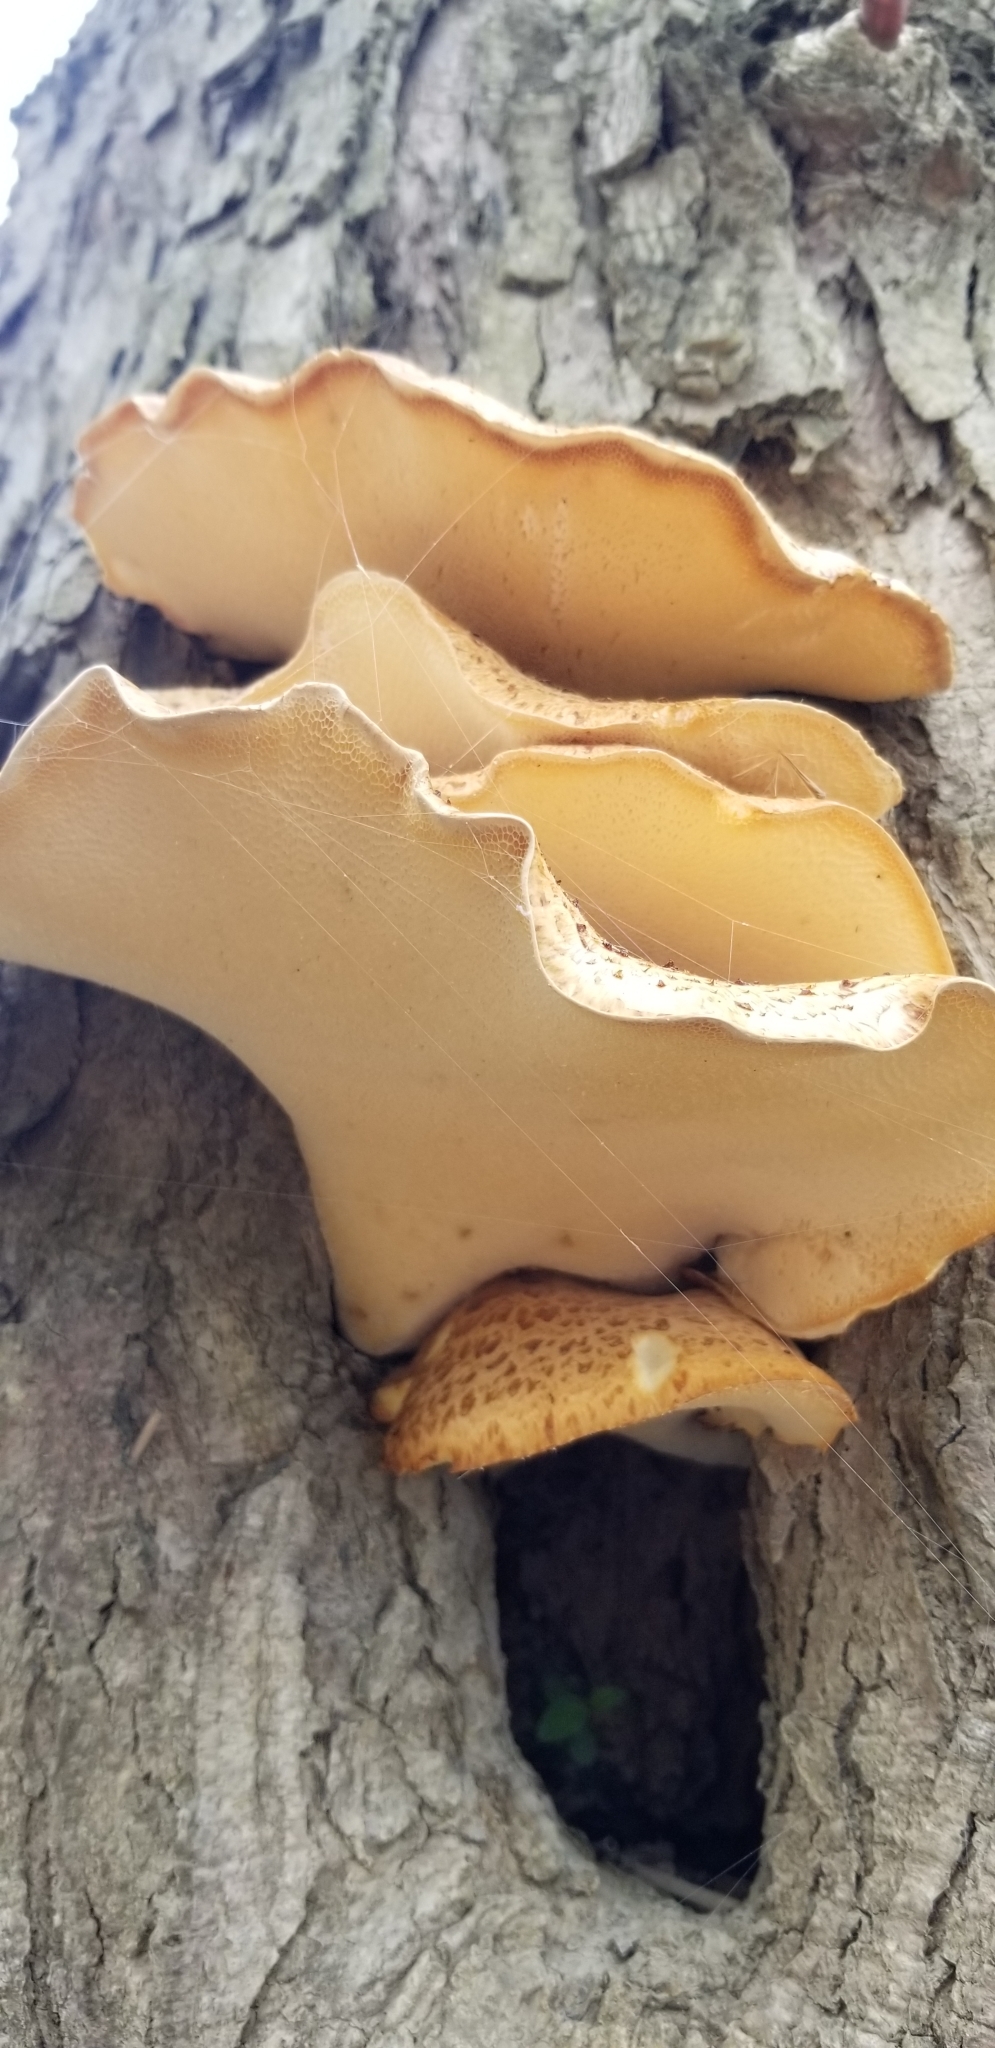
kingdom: Fungi
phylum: Basidiomycota
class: Agaricomycetes
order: Polyporales
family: Polyporaceae
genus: Cerioporus
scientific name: Cerioporus squamosus
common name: Dryad's saddle
